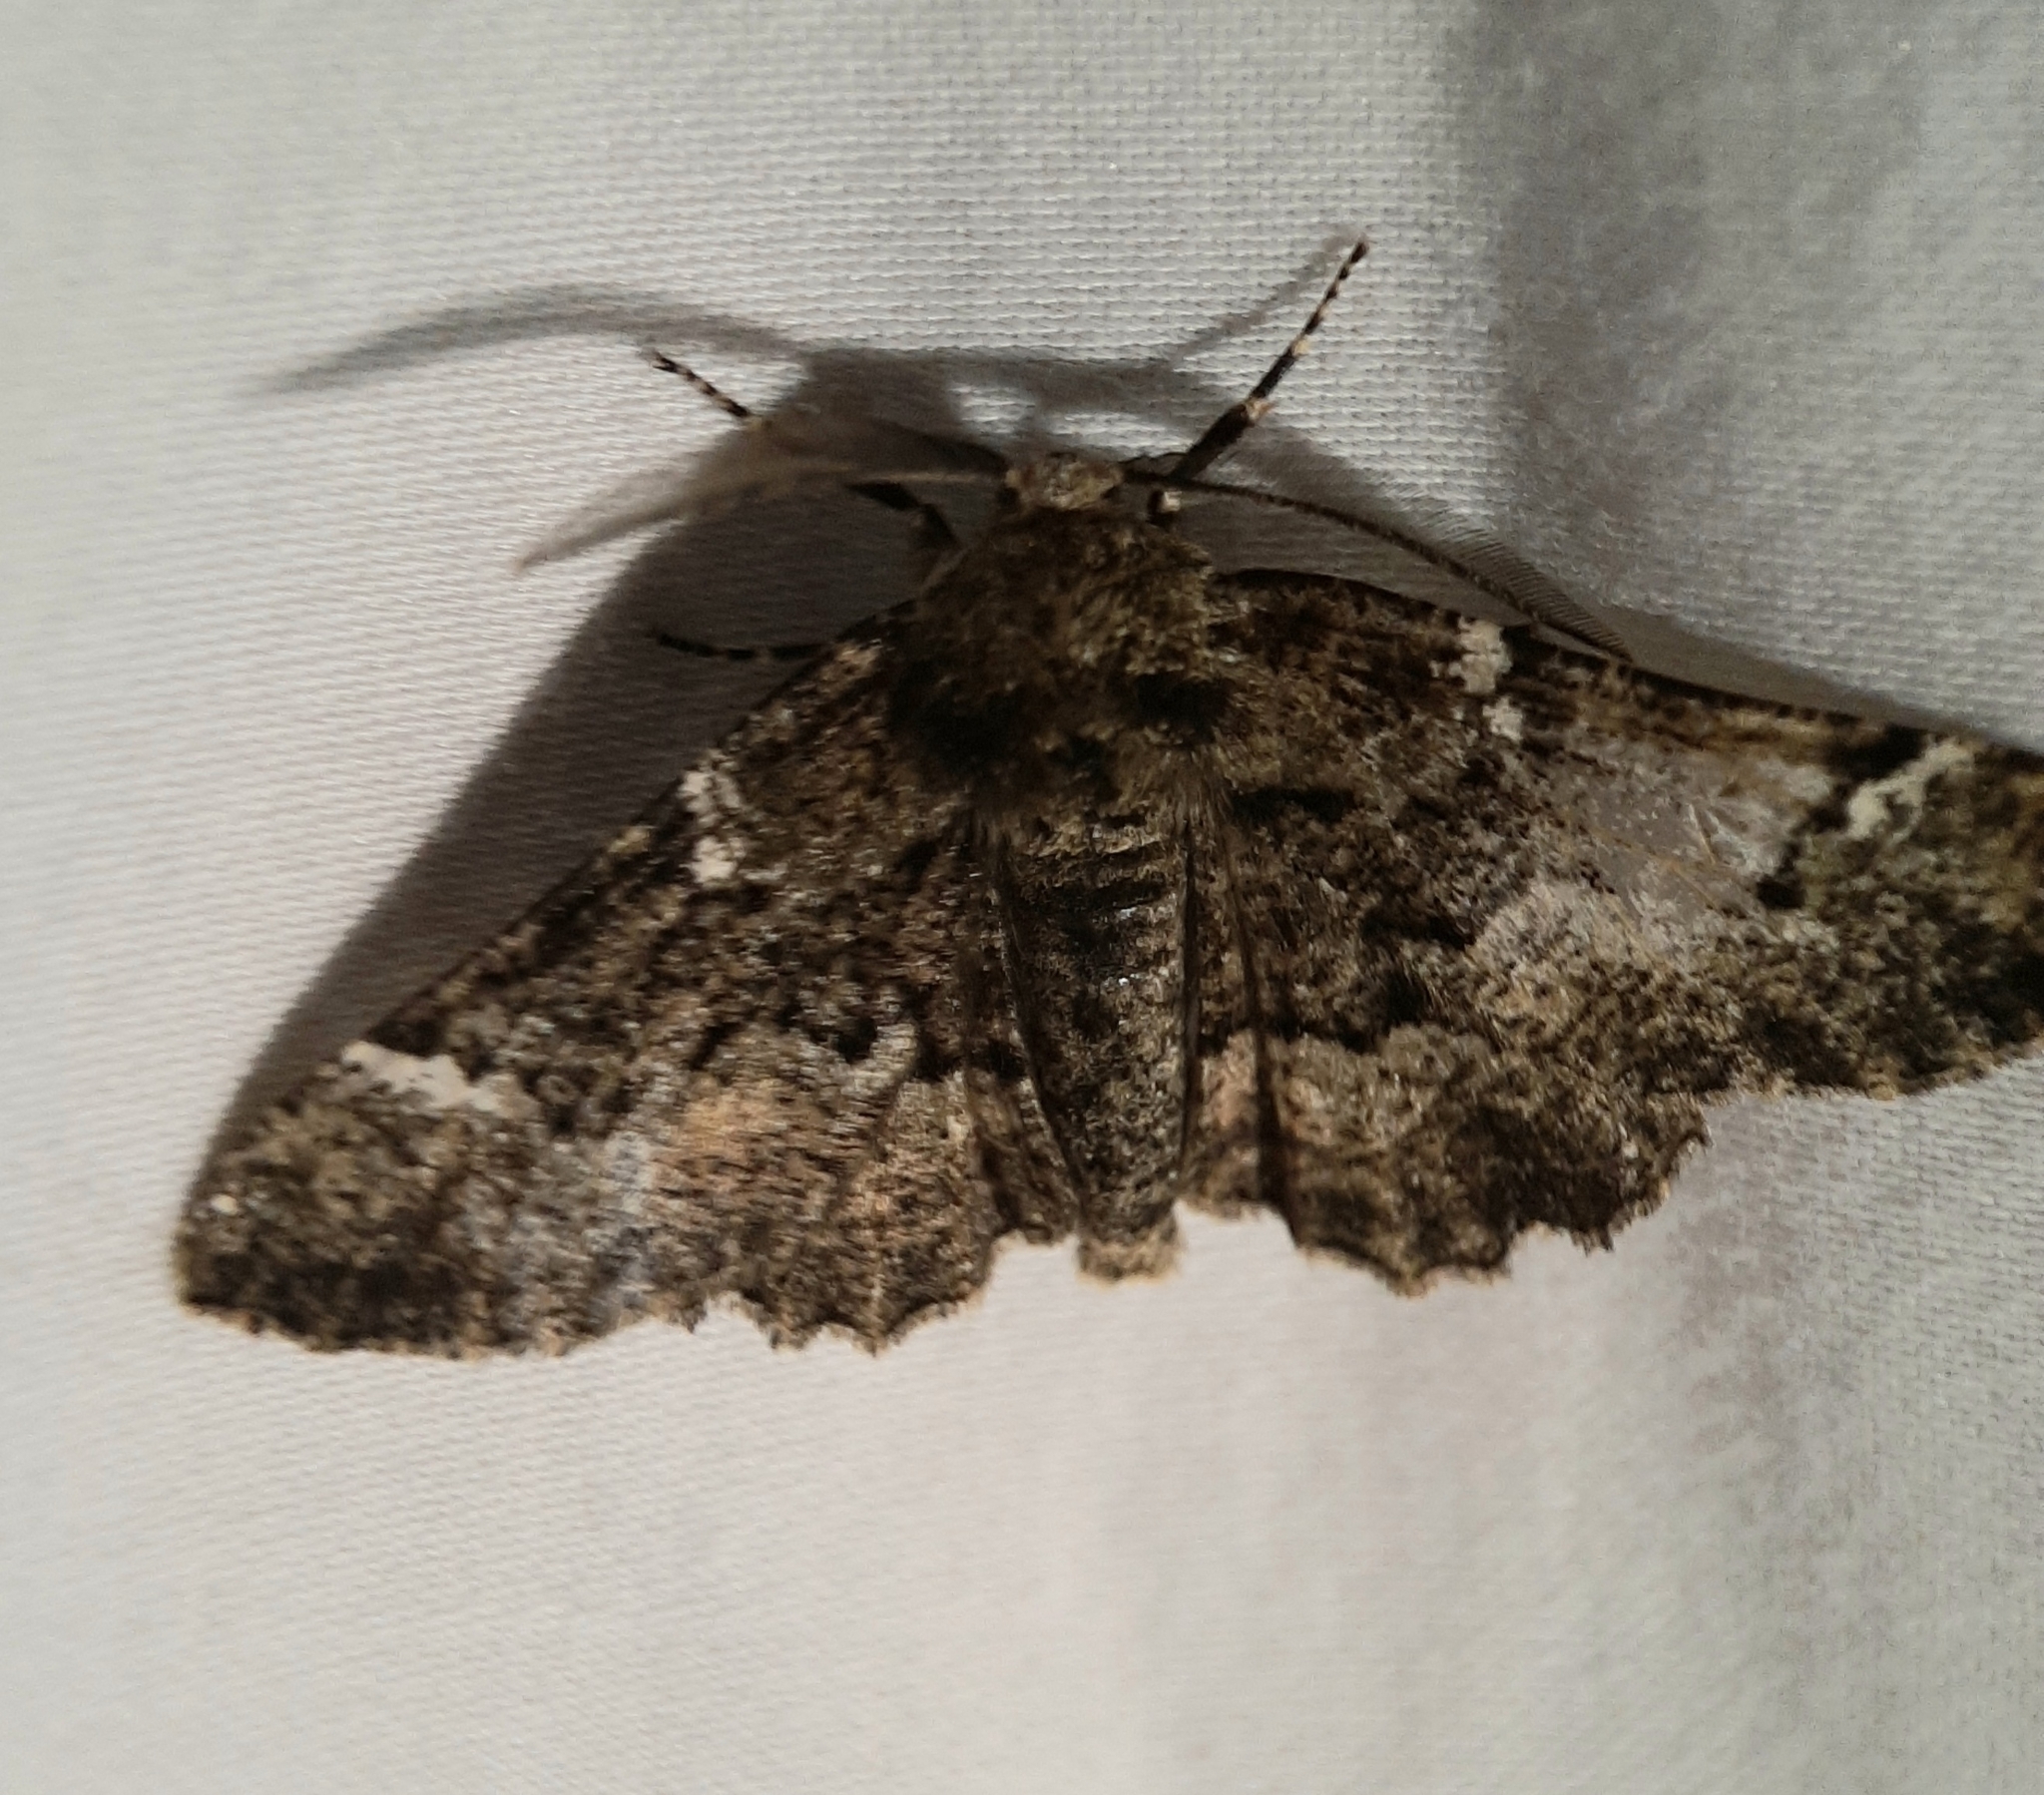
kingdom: Animalia
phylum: Arthropoda
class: Insecta
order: Lepidoptera
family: Geometridae
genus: Phaeoura
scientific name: Phaeoura quernaria
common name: Oak beauty
